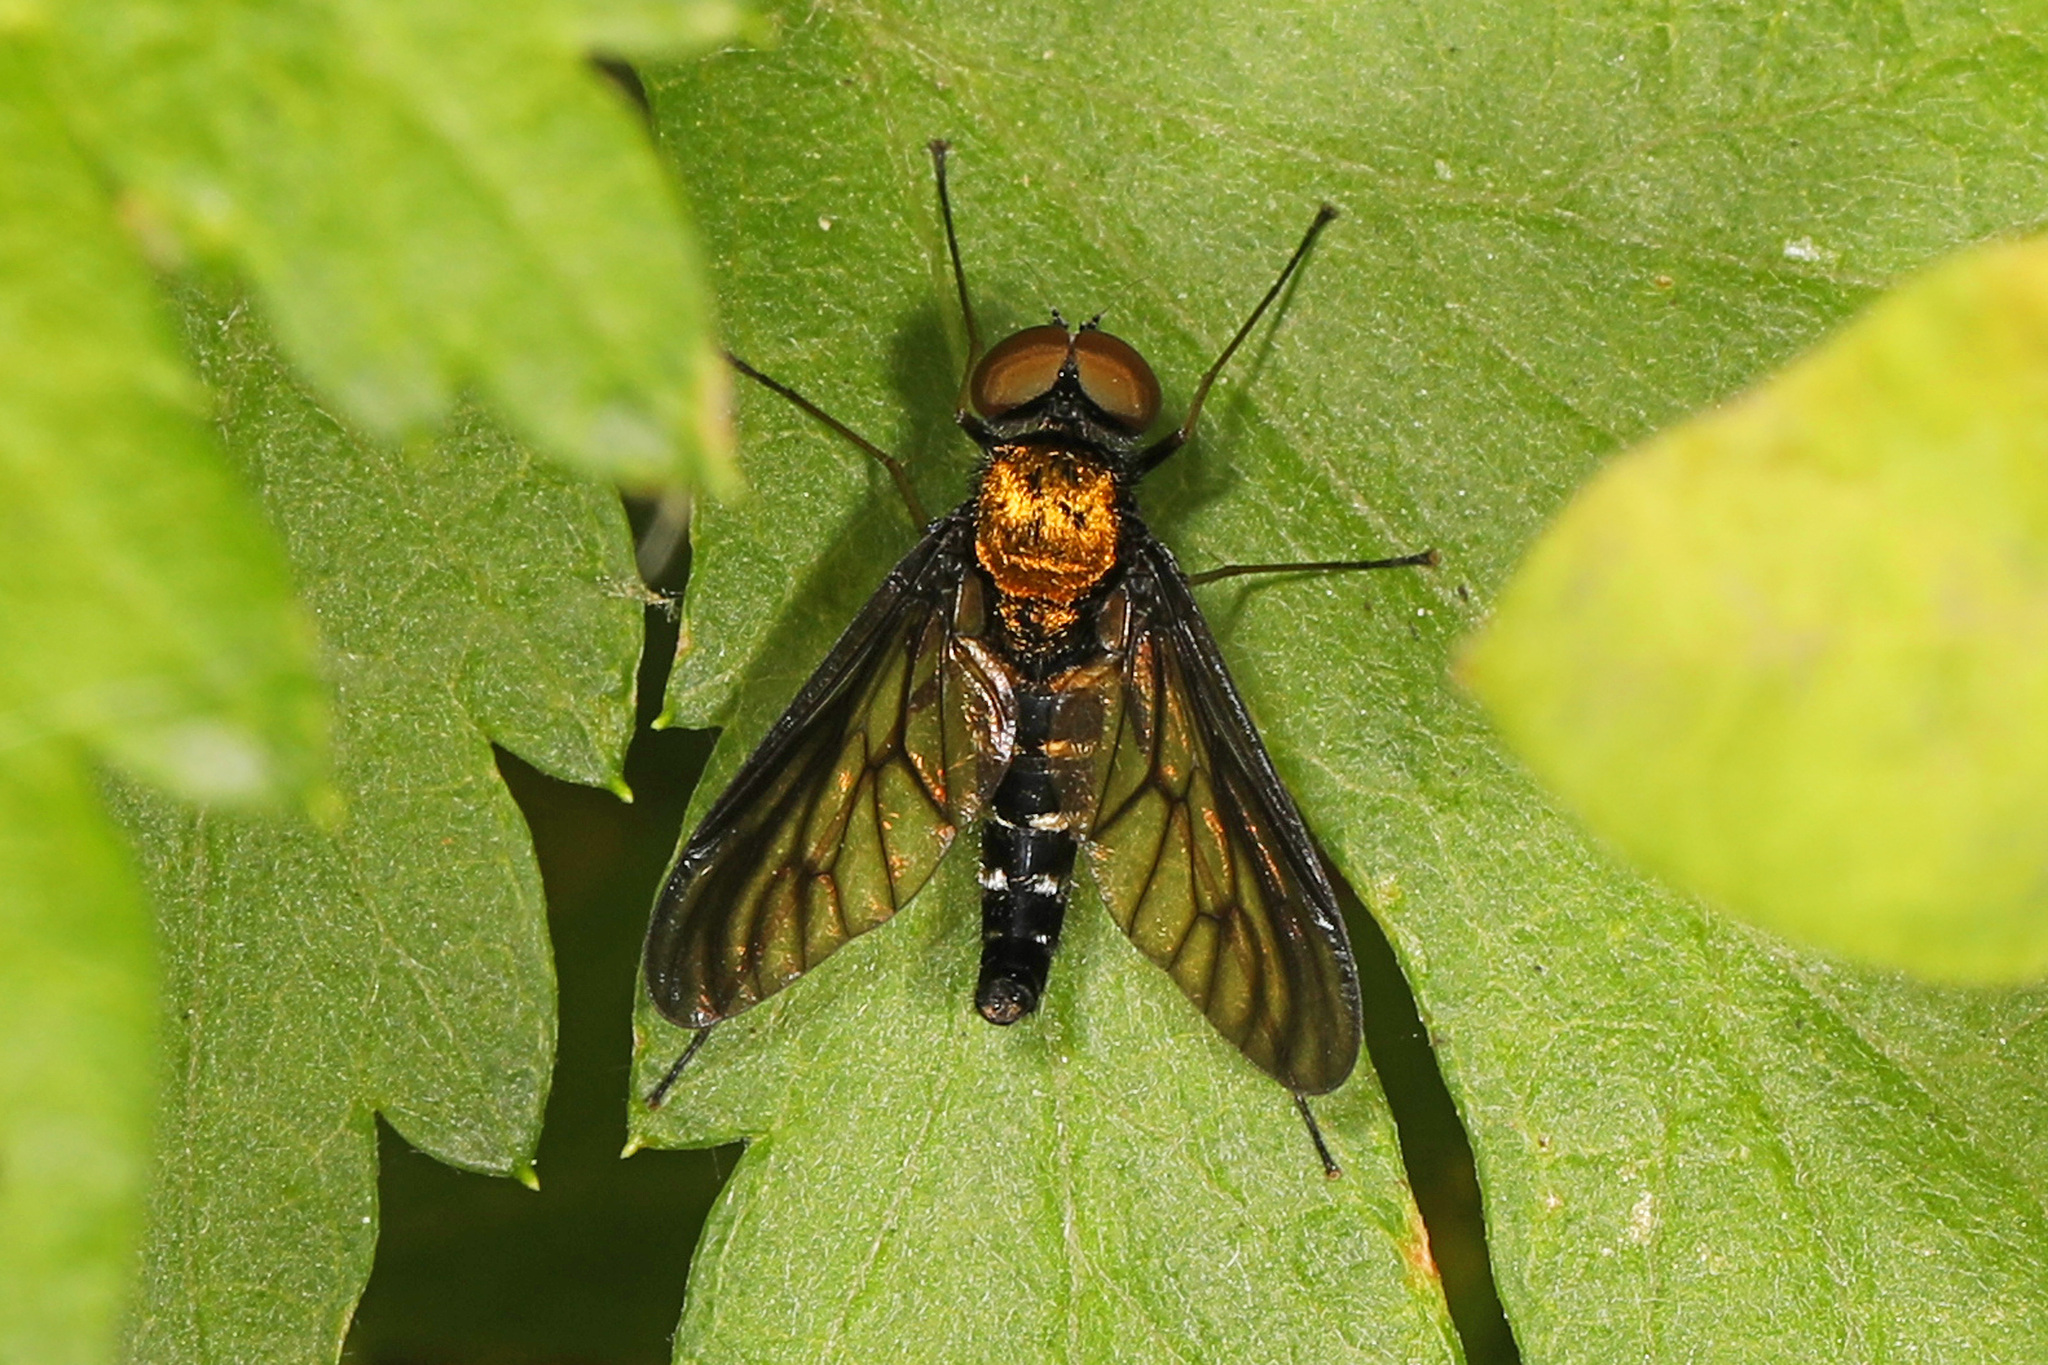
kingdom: Animalia
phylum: Arthropoda
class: Insecta
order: Diptera
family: Rhagionidae
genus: Chrysopilus
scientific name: Chrysopilus thoracicus
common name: Golden-backed snipe fly
